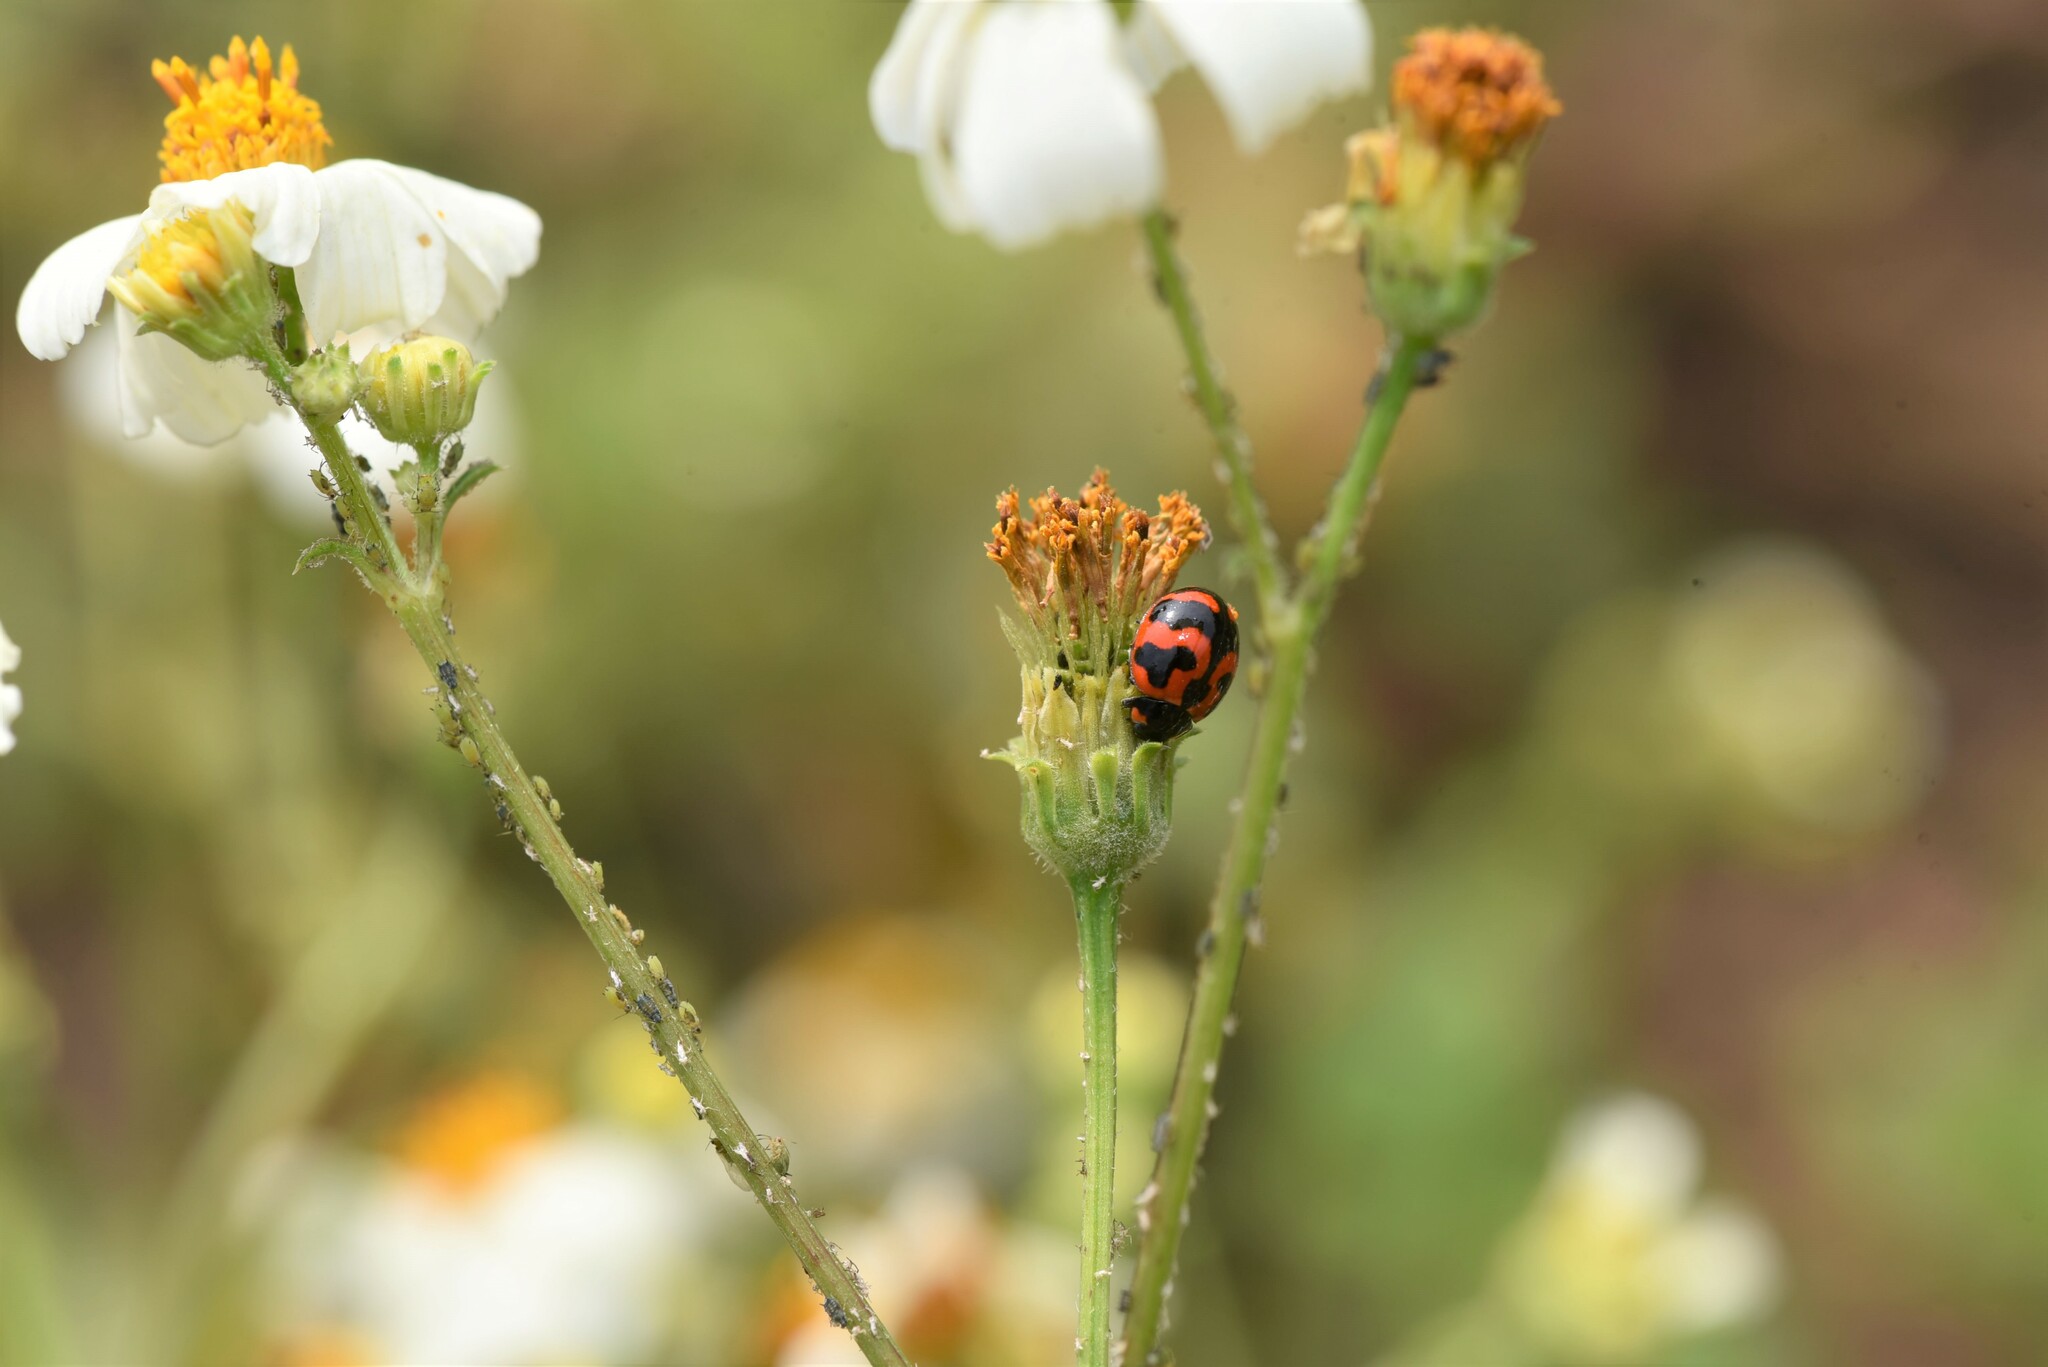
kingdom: Animalia
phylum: Arthropoda
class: Insecta
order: Coleoptera
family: Coccinellidae
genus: Coccinella
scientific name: Coccinella transversalis
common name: Transverse lady beetle
